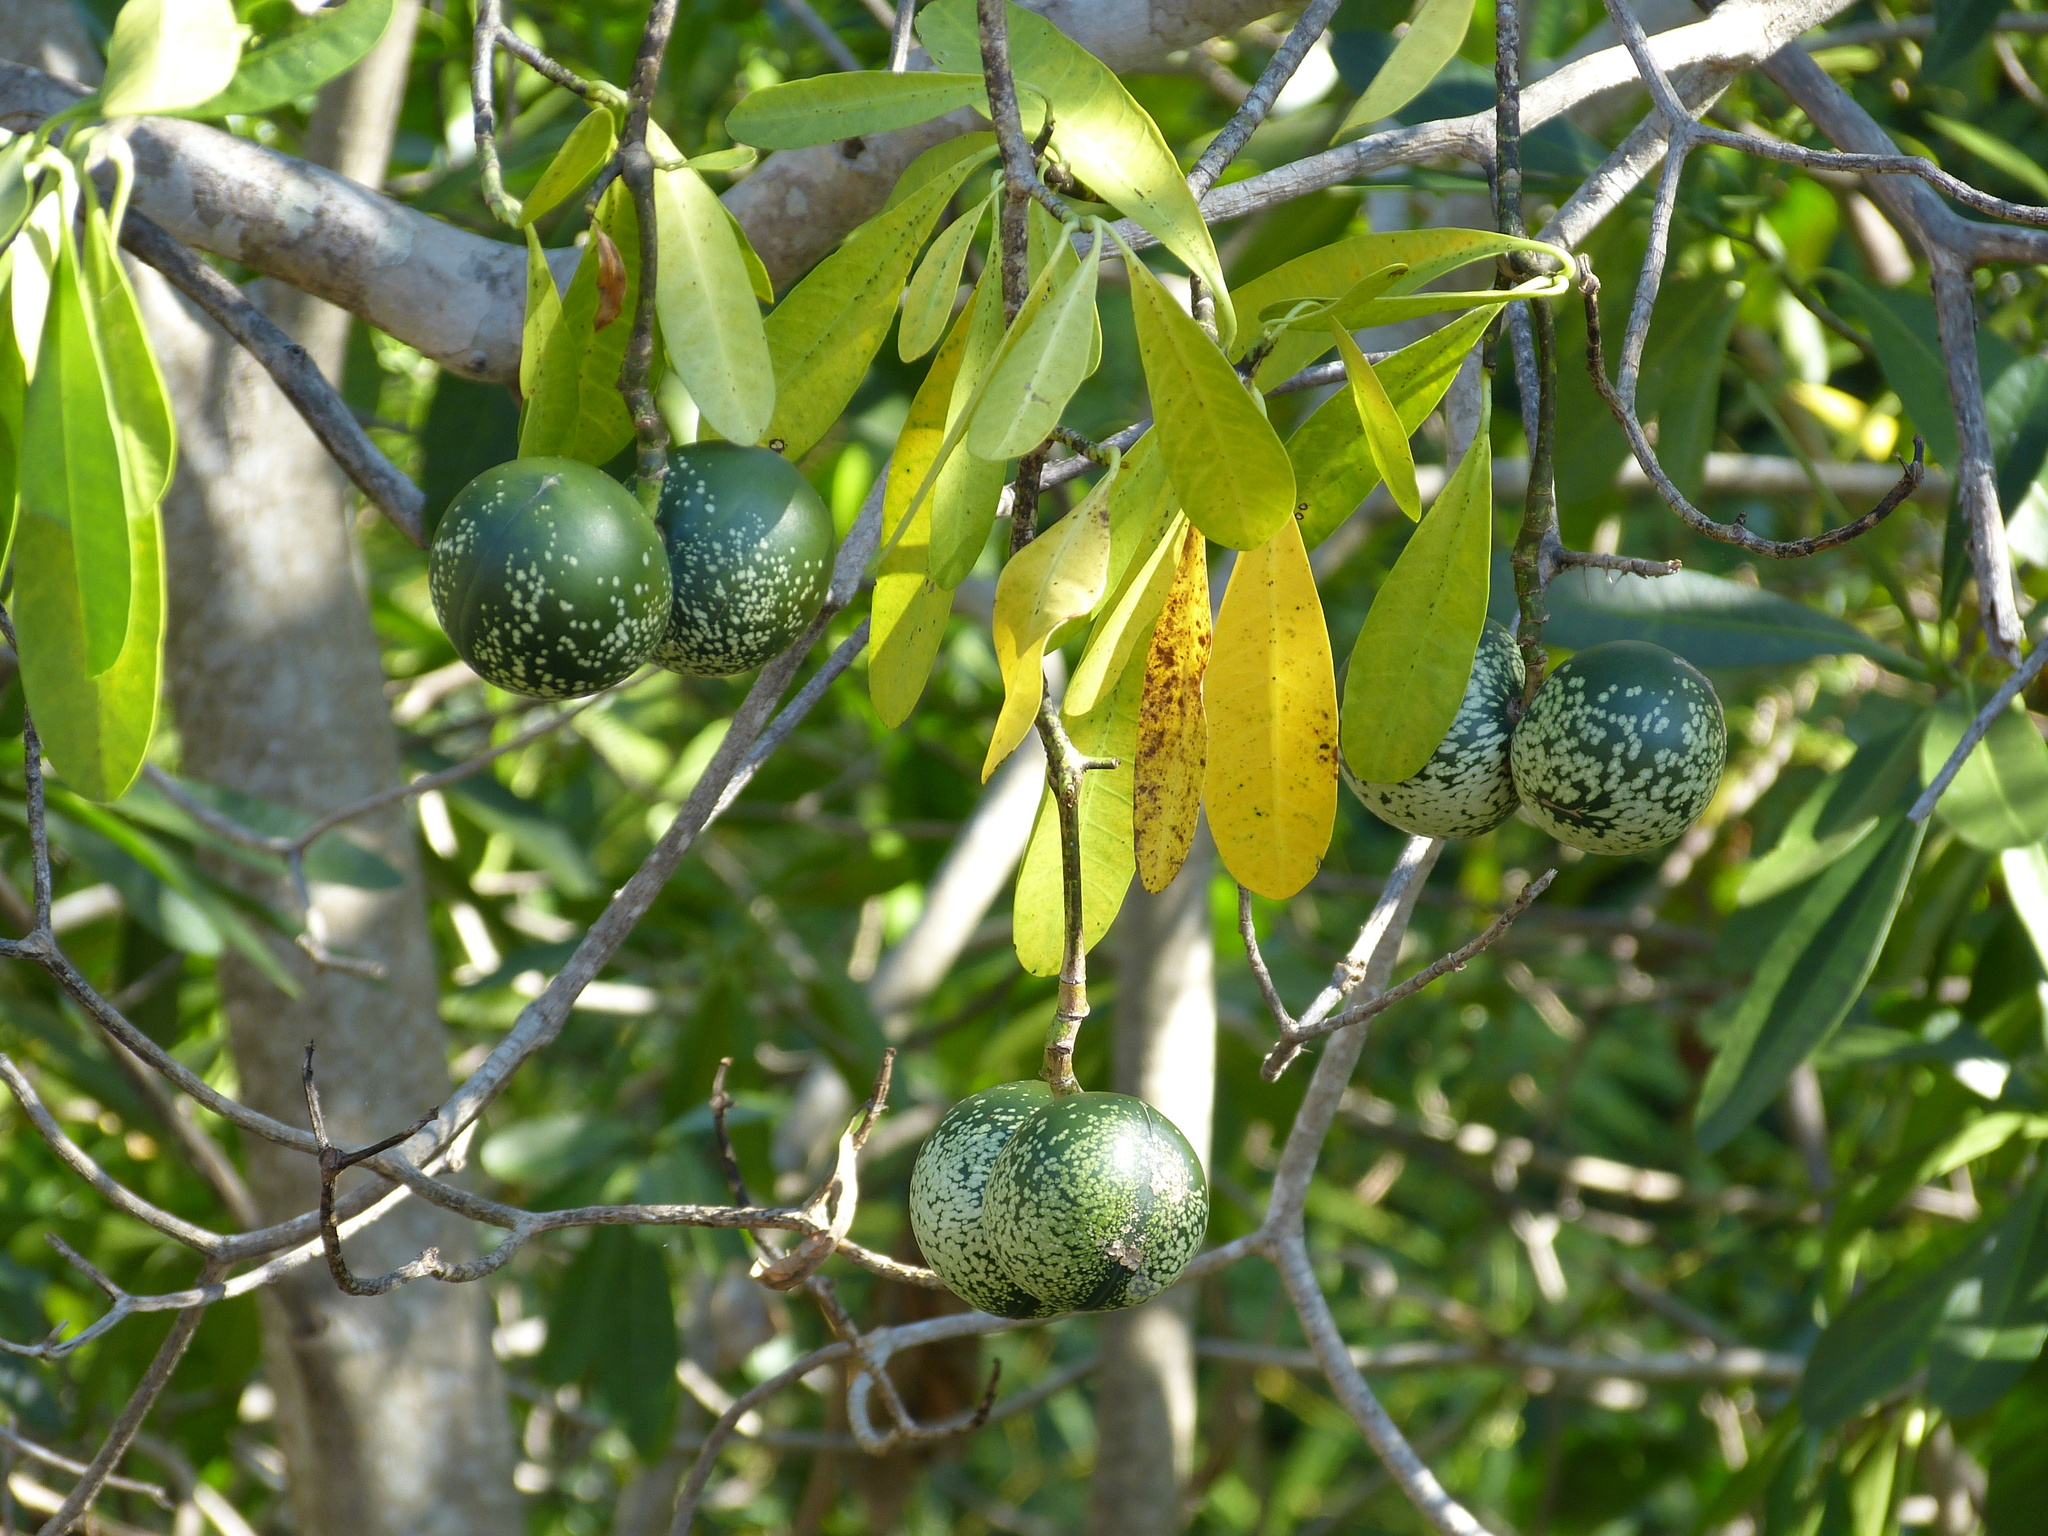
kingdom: Plantae
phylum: Tracheophyta
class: Magnoliopsida
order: Gentianales
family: Apocynaceae
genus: Voacanga
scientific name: Voacanga thouarsii
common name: Wild frangipani
